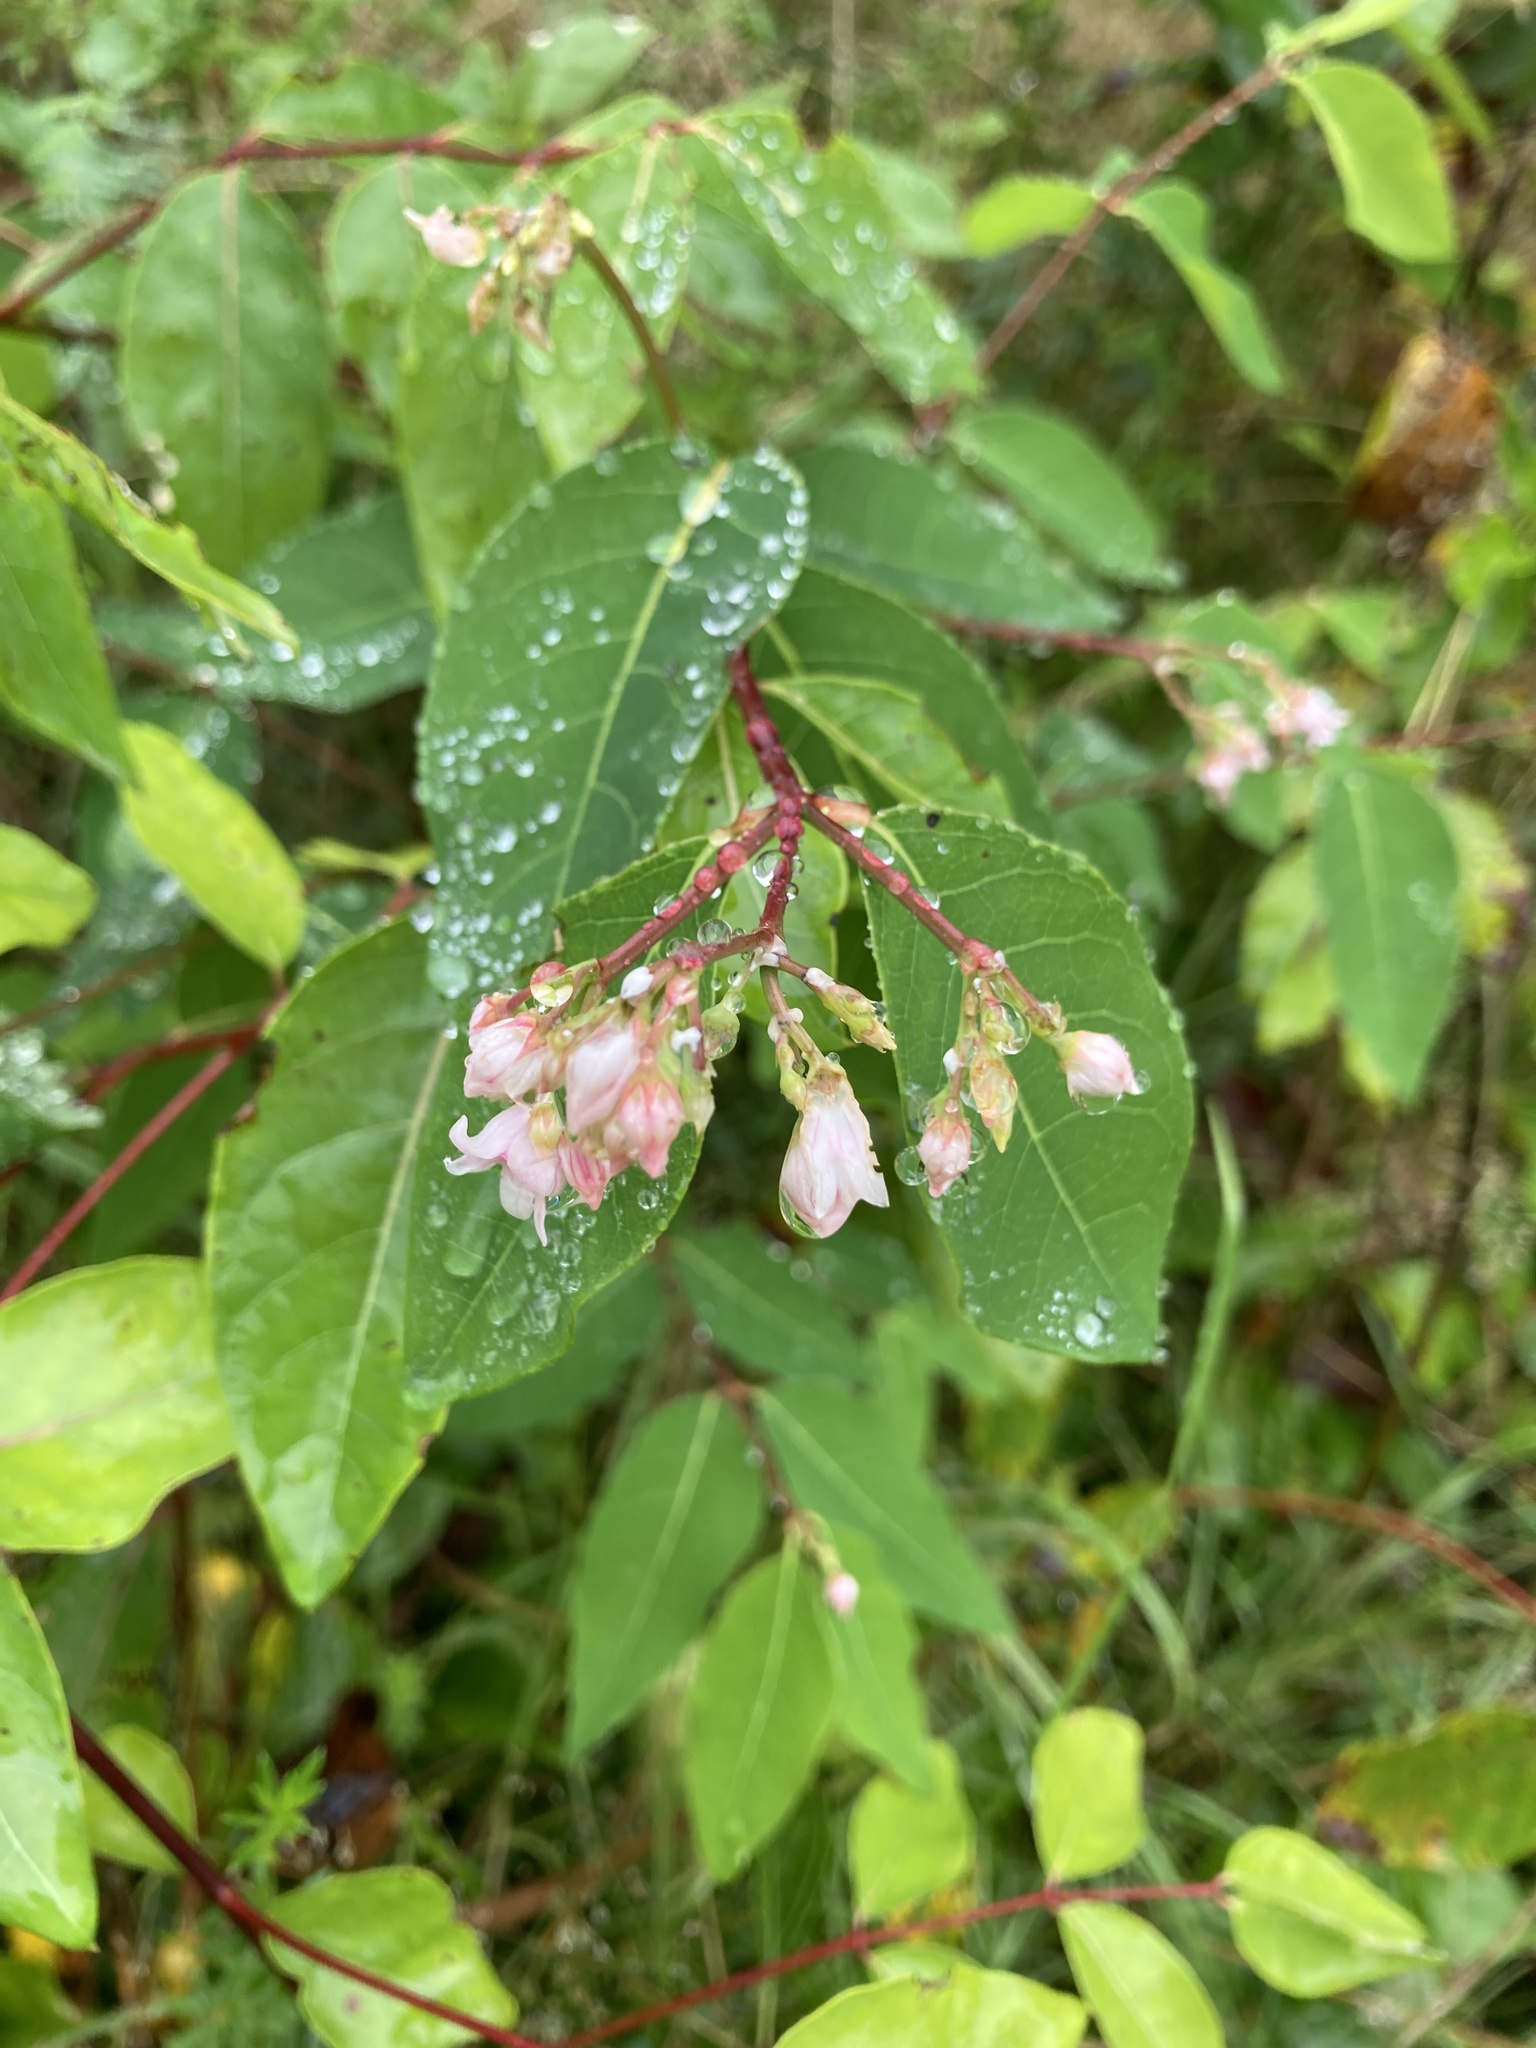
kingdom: Plantae
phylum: Tracheophyta
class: Magnoliopsida
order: Gentianales
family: Apocynaceae
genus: Apocynum
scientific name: Apocynum androsaemifolium
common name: Spreading dogbane
